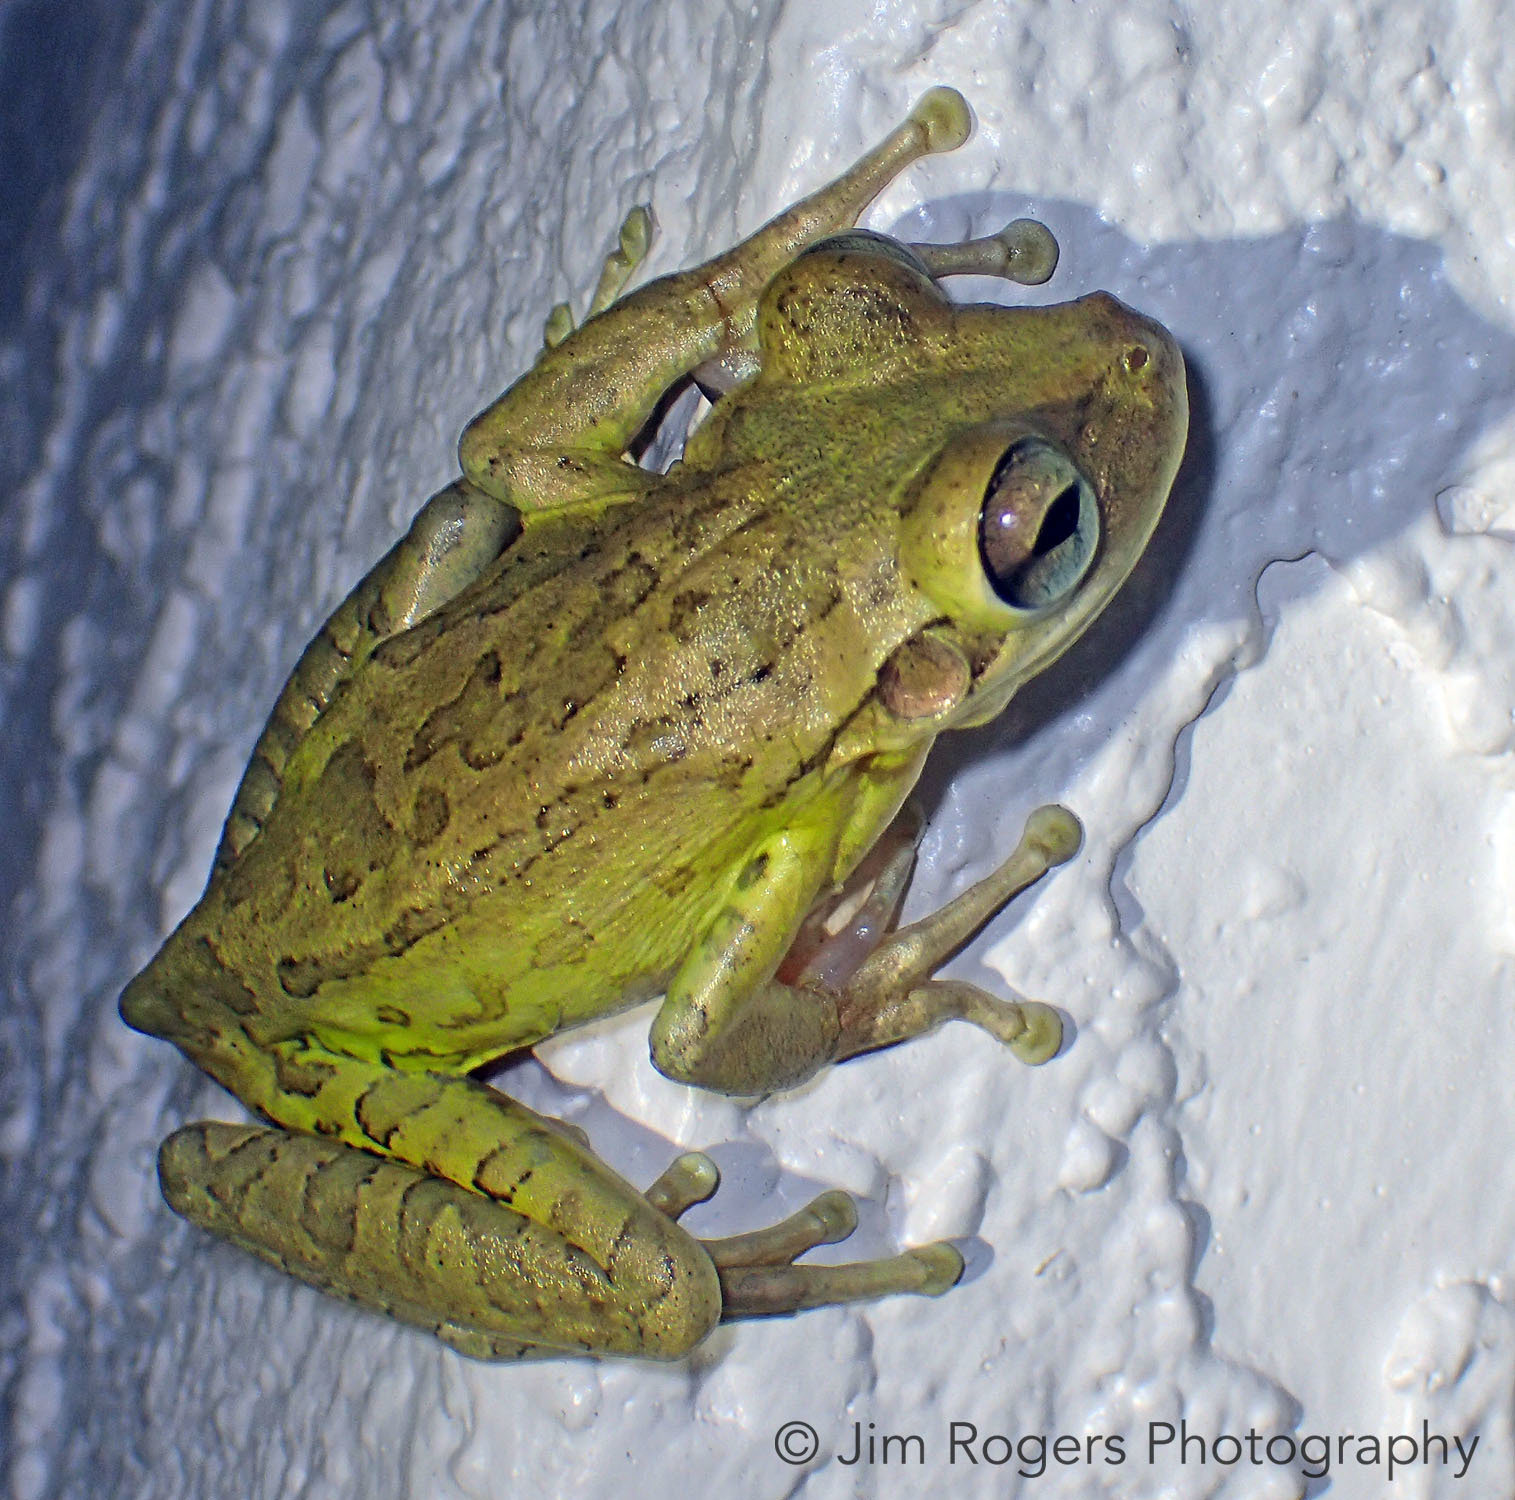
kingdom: Animalia
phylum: Chordata
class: Amphibia
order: Anura
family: Hylidae
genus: Osteopilus
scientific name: Osteopilus septentrionalis
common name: Cuban treefrog
